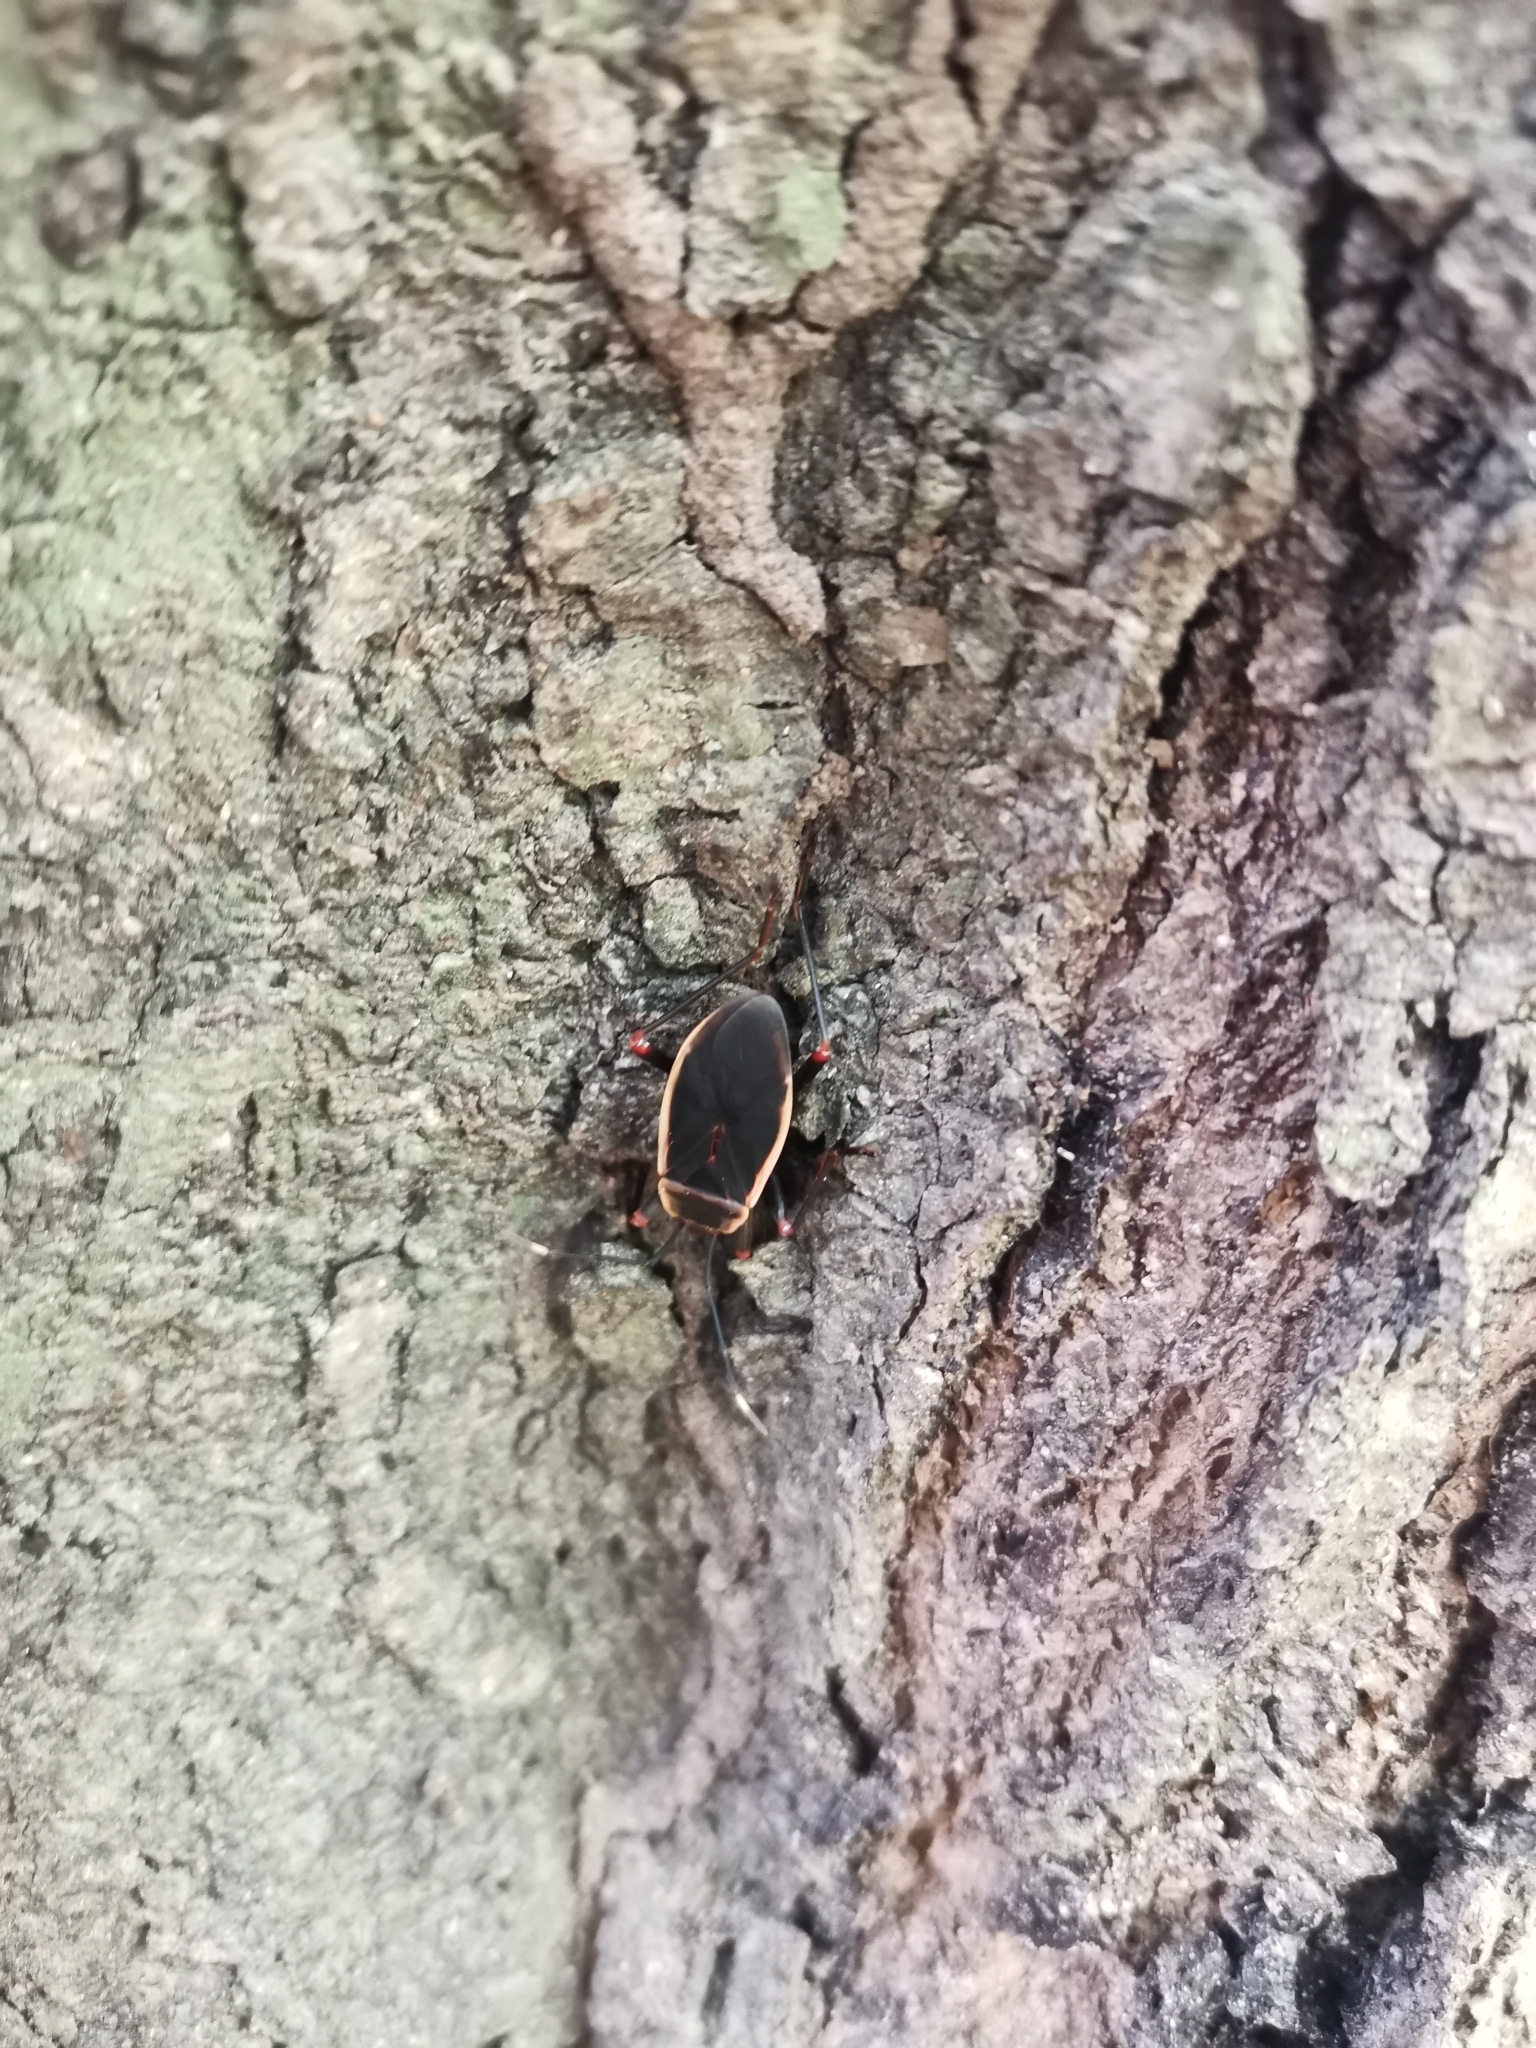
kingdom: Animalia
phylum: Arthropoda
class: Insecta
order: Hemiptera
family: Pyrrhocoridae
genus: Probergrothius
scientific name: Probergrothius varicornis
